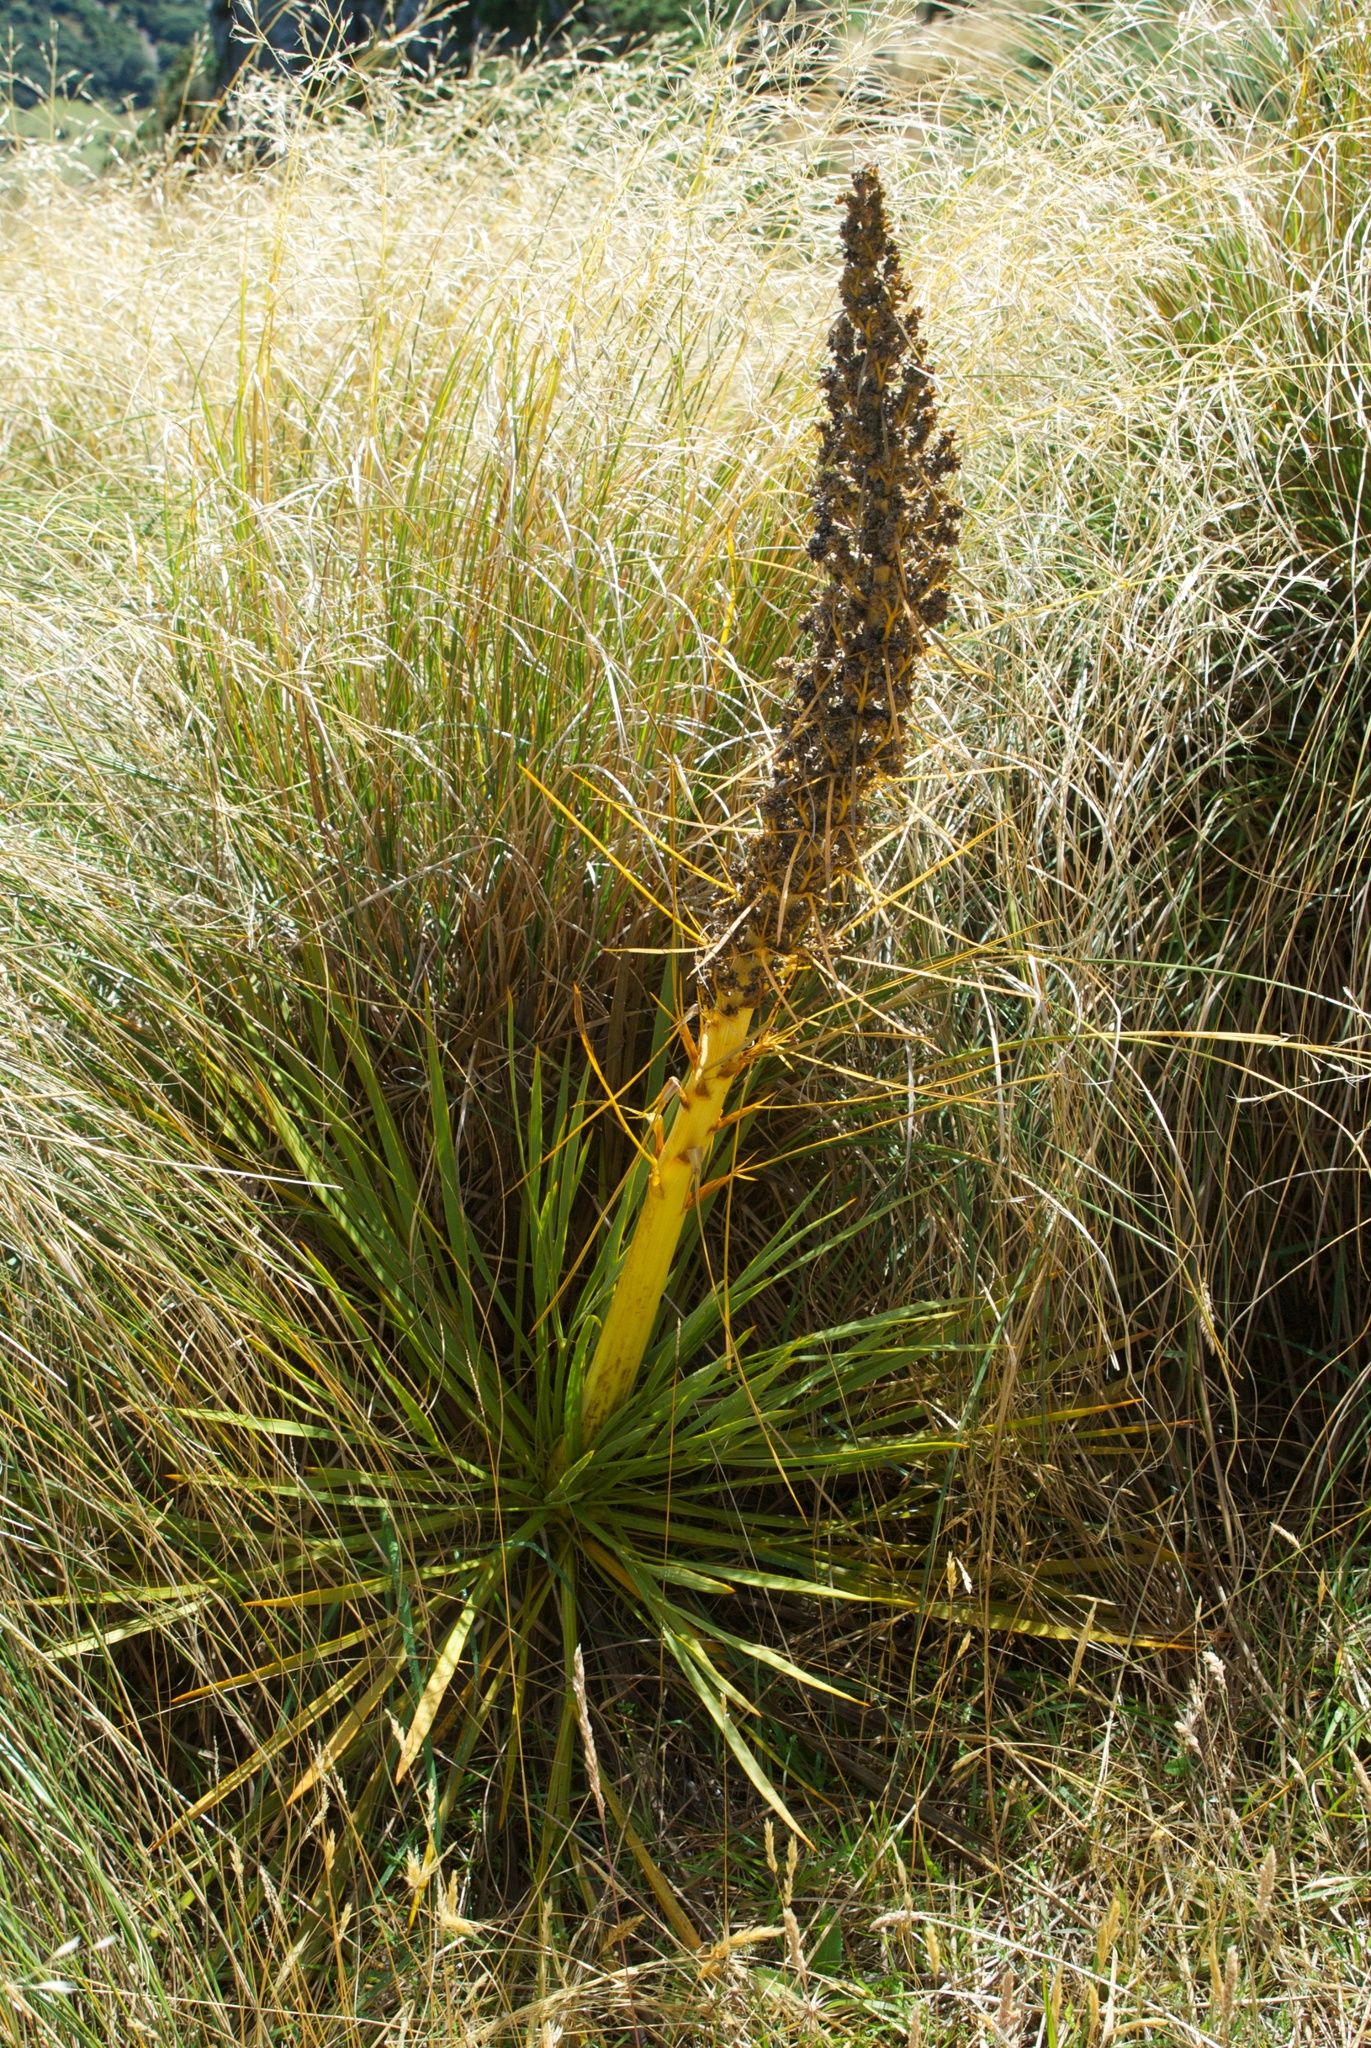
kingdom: Plantae
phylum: Tracheophyta
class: Magnoliopsida
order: Apiales
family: Apiaceae
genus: Aciphylla
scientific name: Aciphylla aurea
